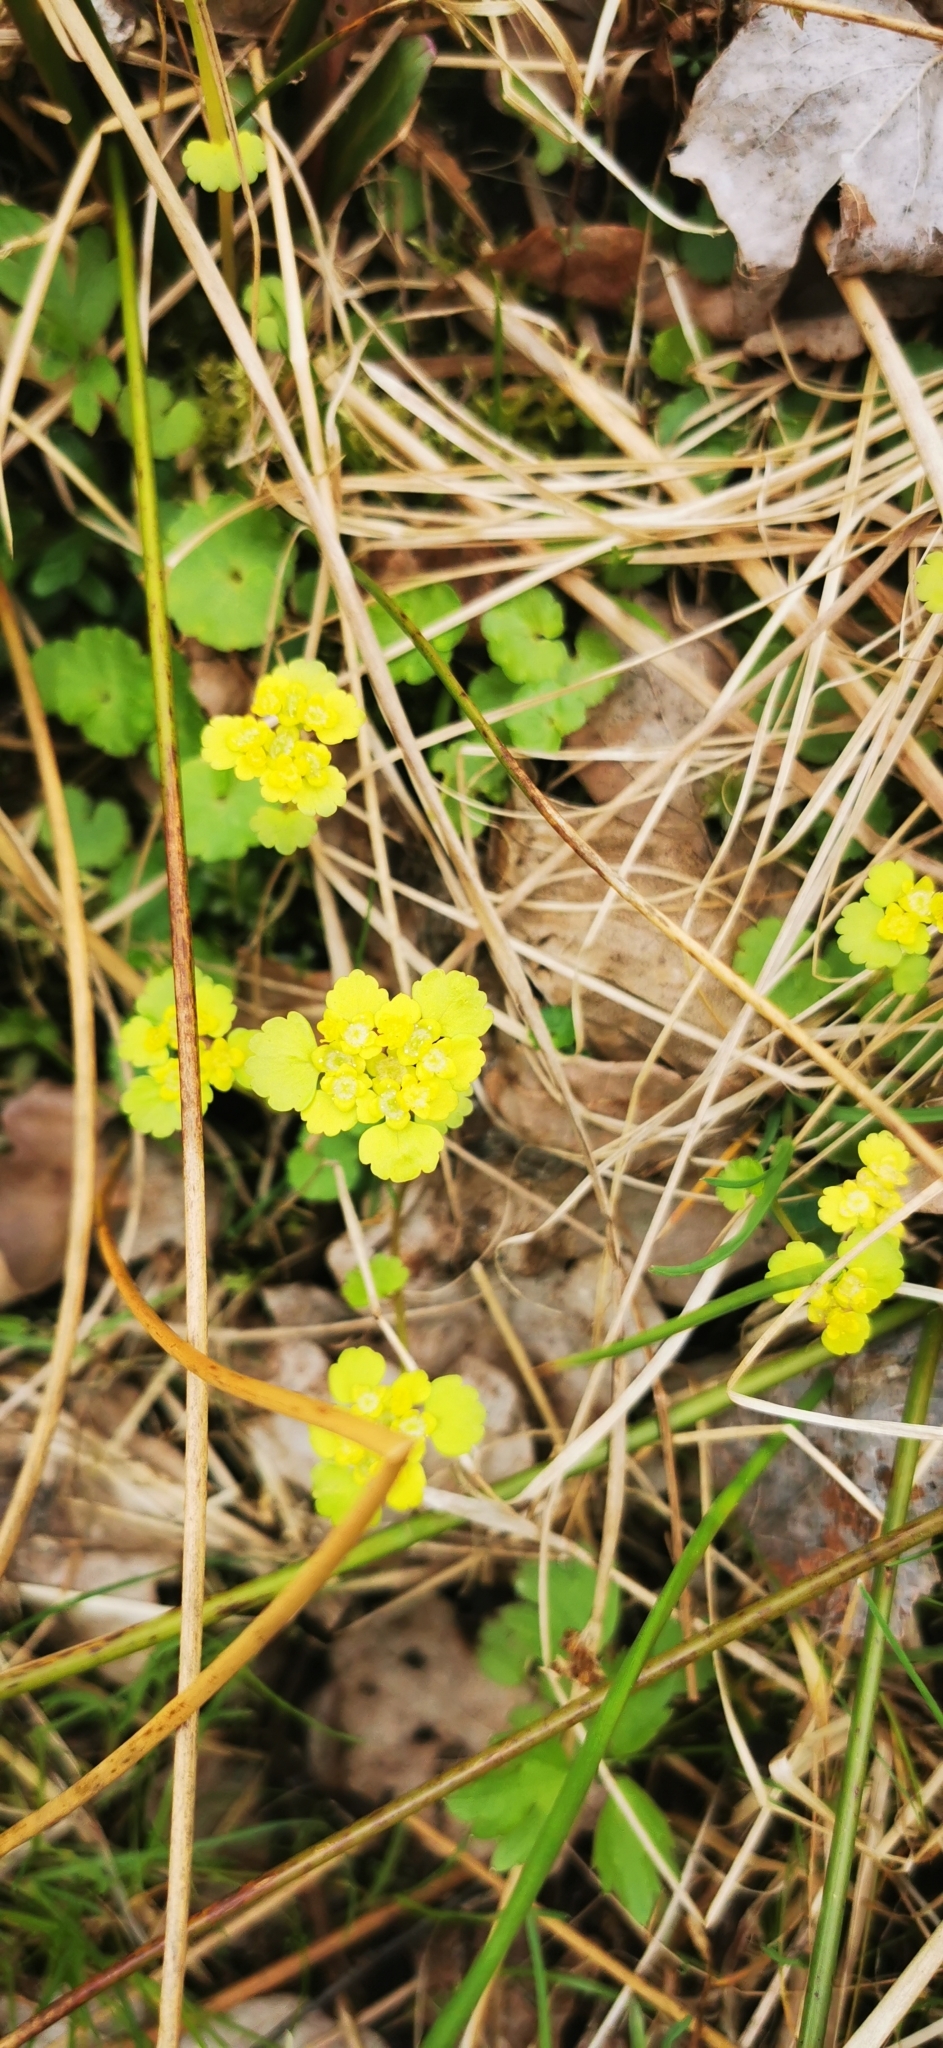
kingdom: Plantae
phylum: Tracheophyta
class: Magnoliopsida
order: Saxifragales
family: Saxifragaceae
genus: Chrysosplenium
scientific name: Chrysosplenium alternifolium
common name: Alternate-leaved golden-saxifrage
